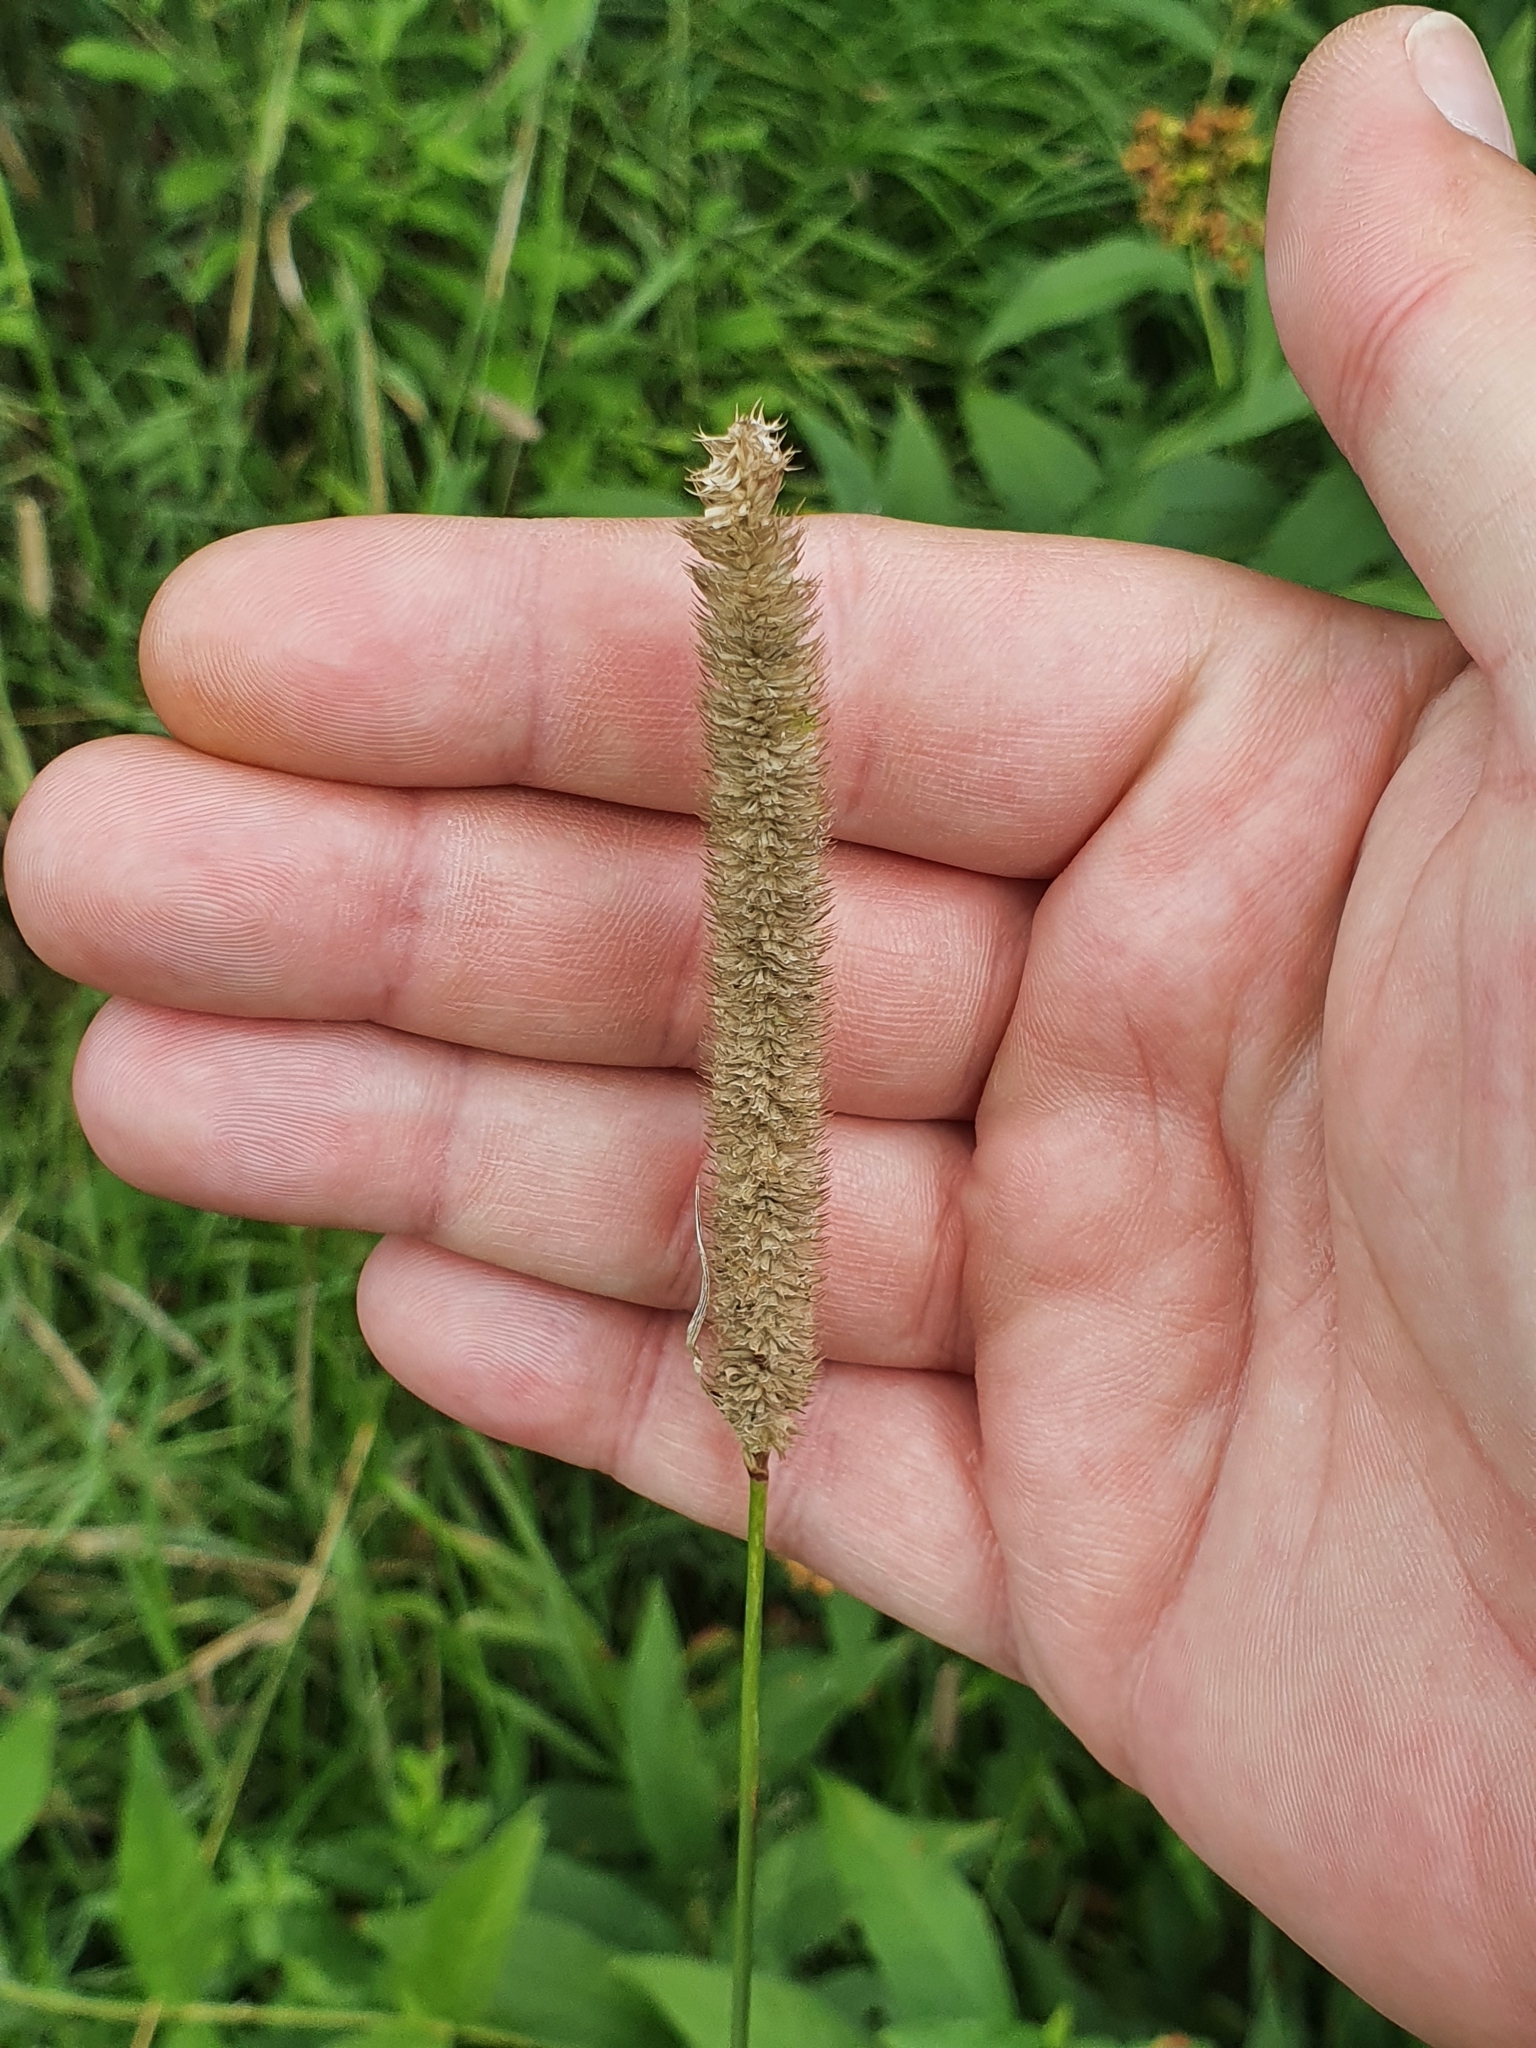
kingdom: Plantae
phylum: Tracheophyta
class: Liliopsida
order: Poales
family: Poaceae
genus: Phleum
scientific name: Phleum pratense
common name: Timothy grass
